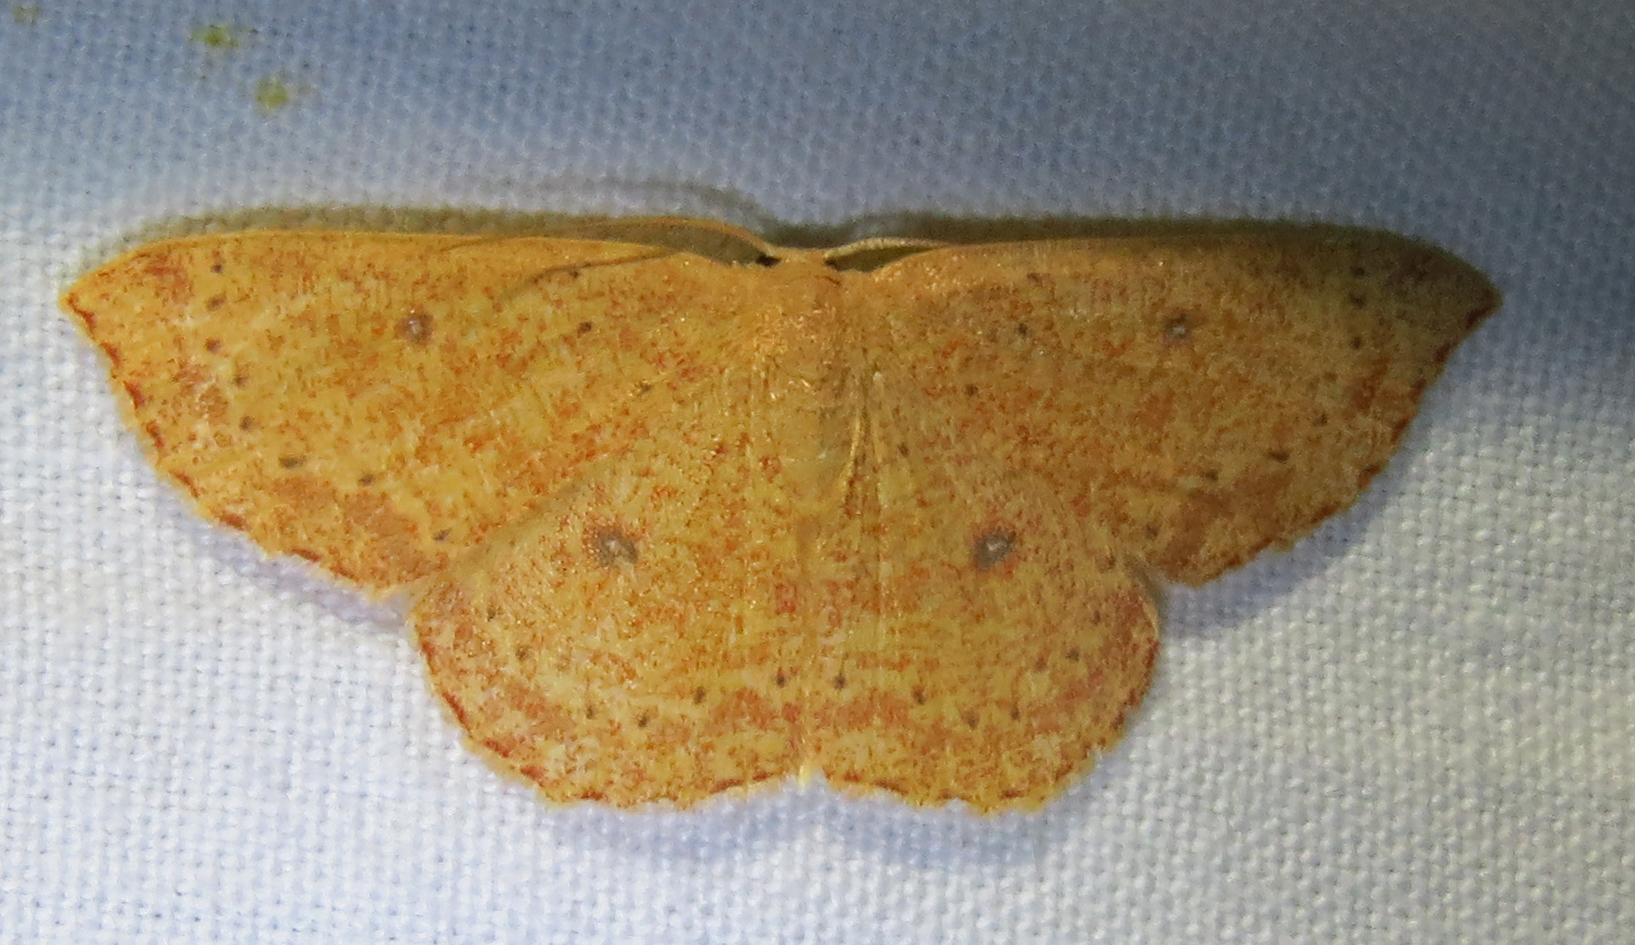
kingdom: Animalia
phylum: Arthropoda
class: Insecta
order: Lepidoptera
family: Geometridae
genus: Cyclophora
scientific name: Cyclophora packardi
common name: Packard's wave
